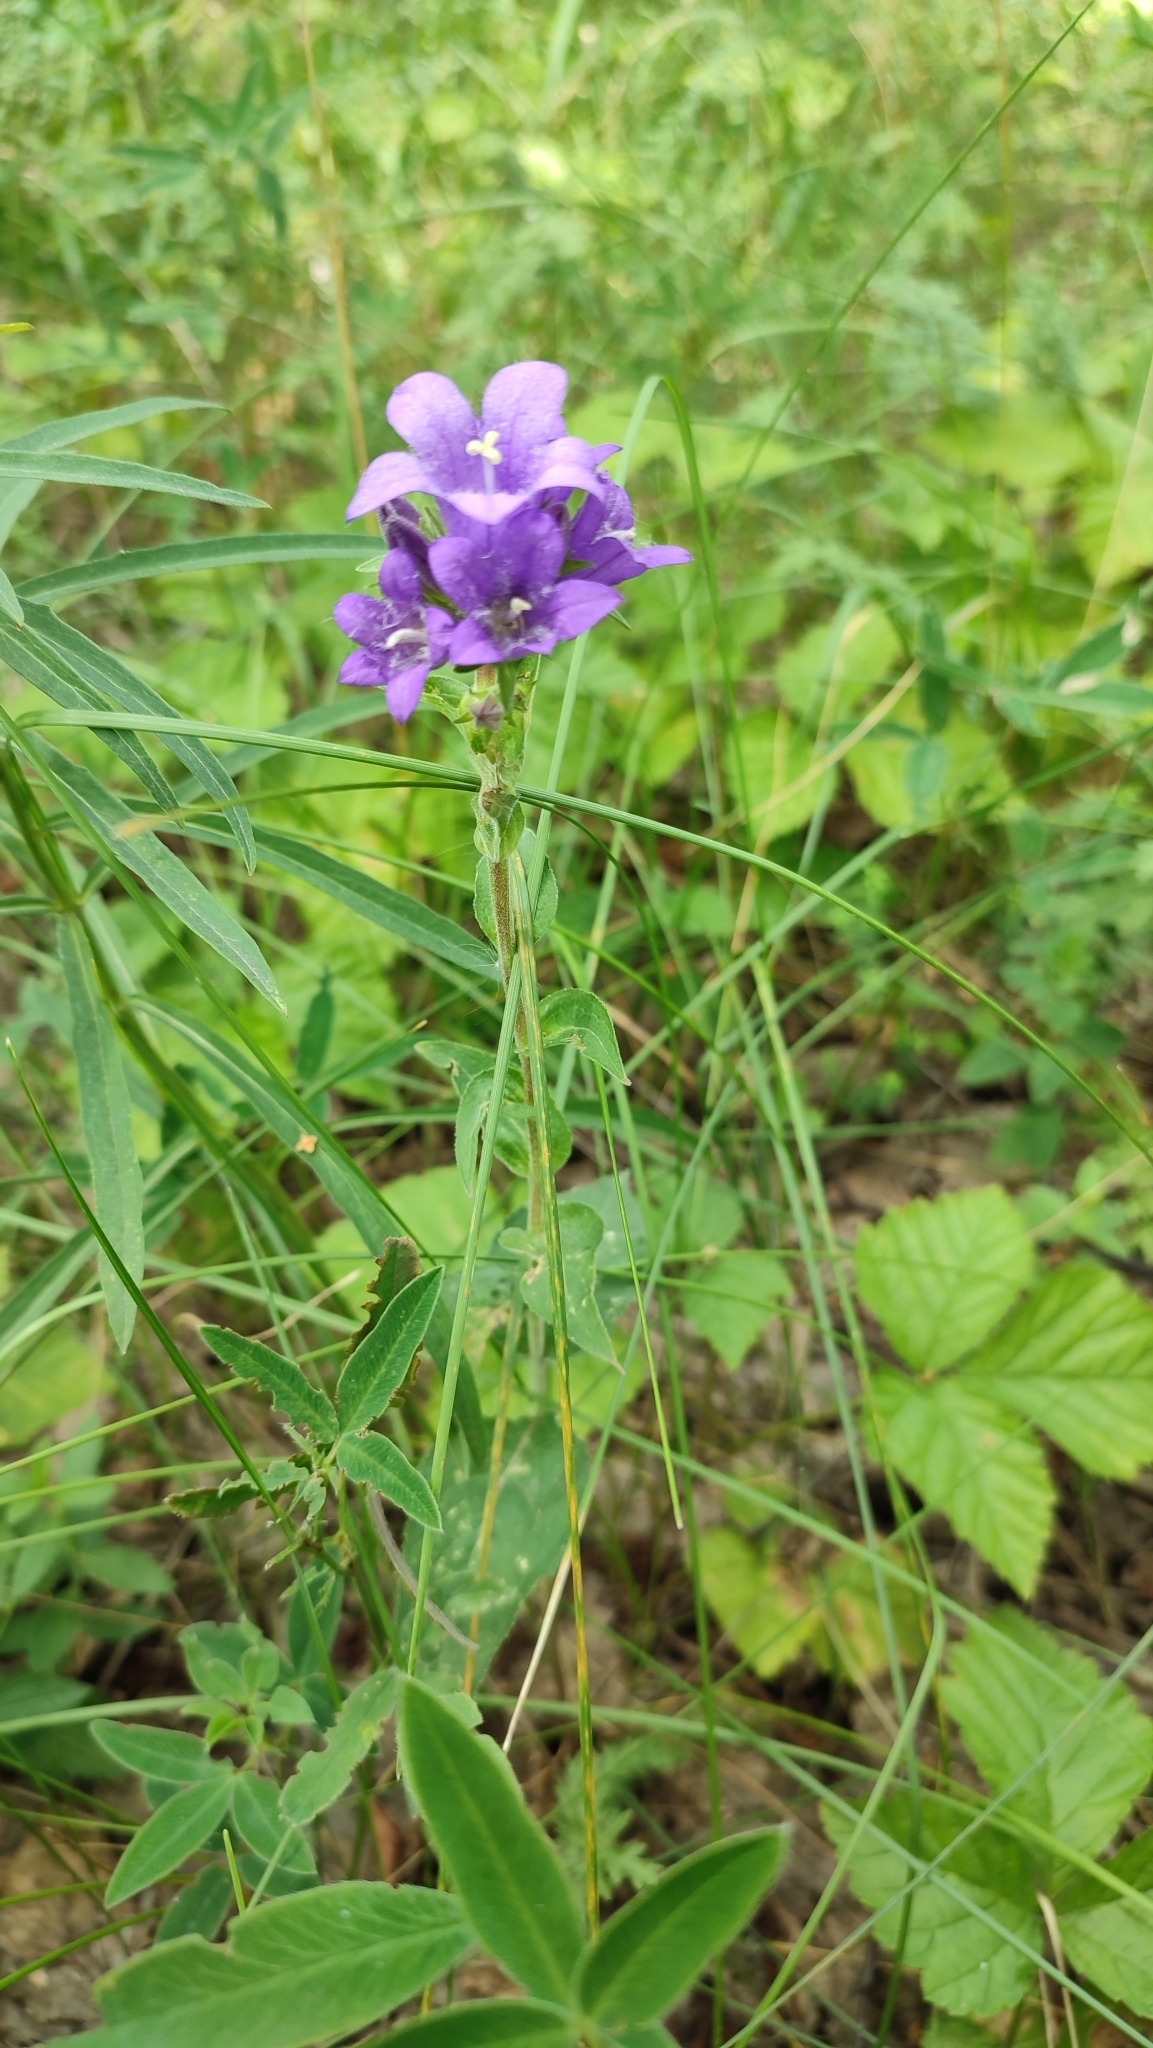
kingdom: Plantae
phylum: Tracheophyta
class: Magnoliopsida
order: Asterales
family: Campanulaceae
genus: Campanula
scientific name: Campanula glomerata
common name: Clustered bellflower
